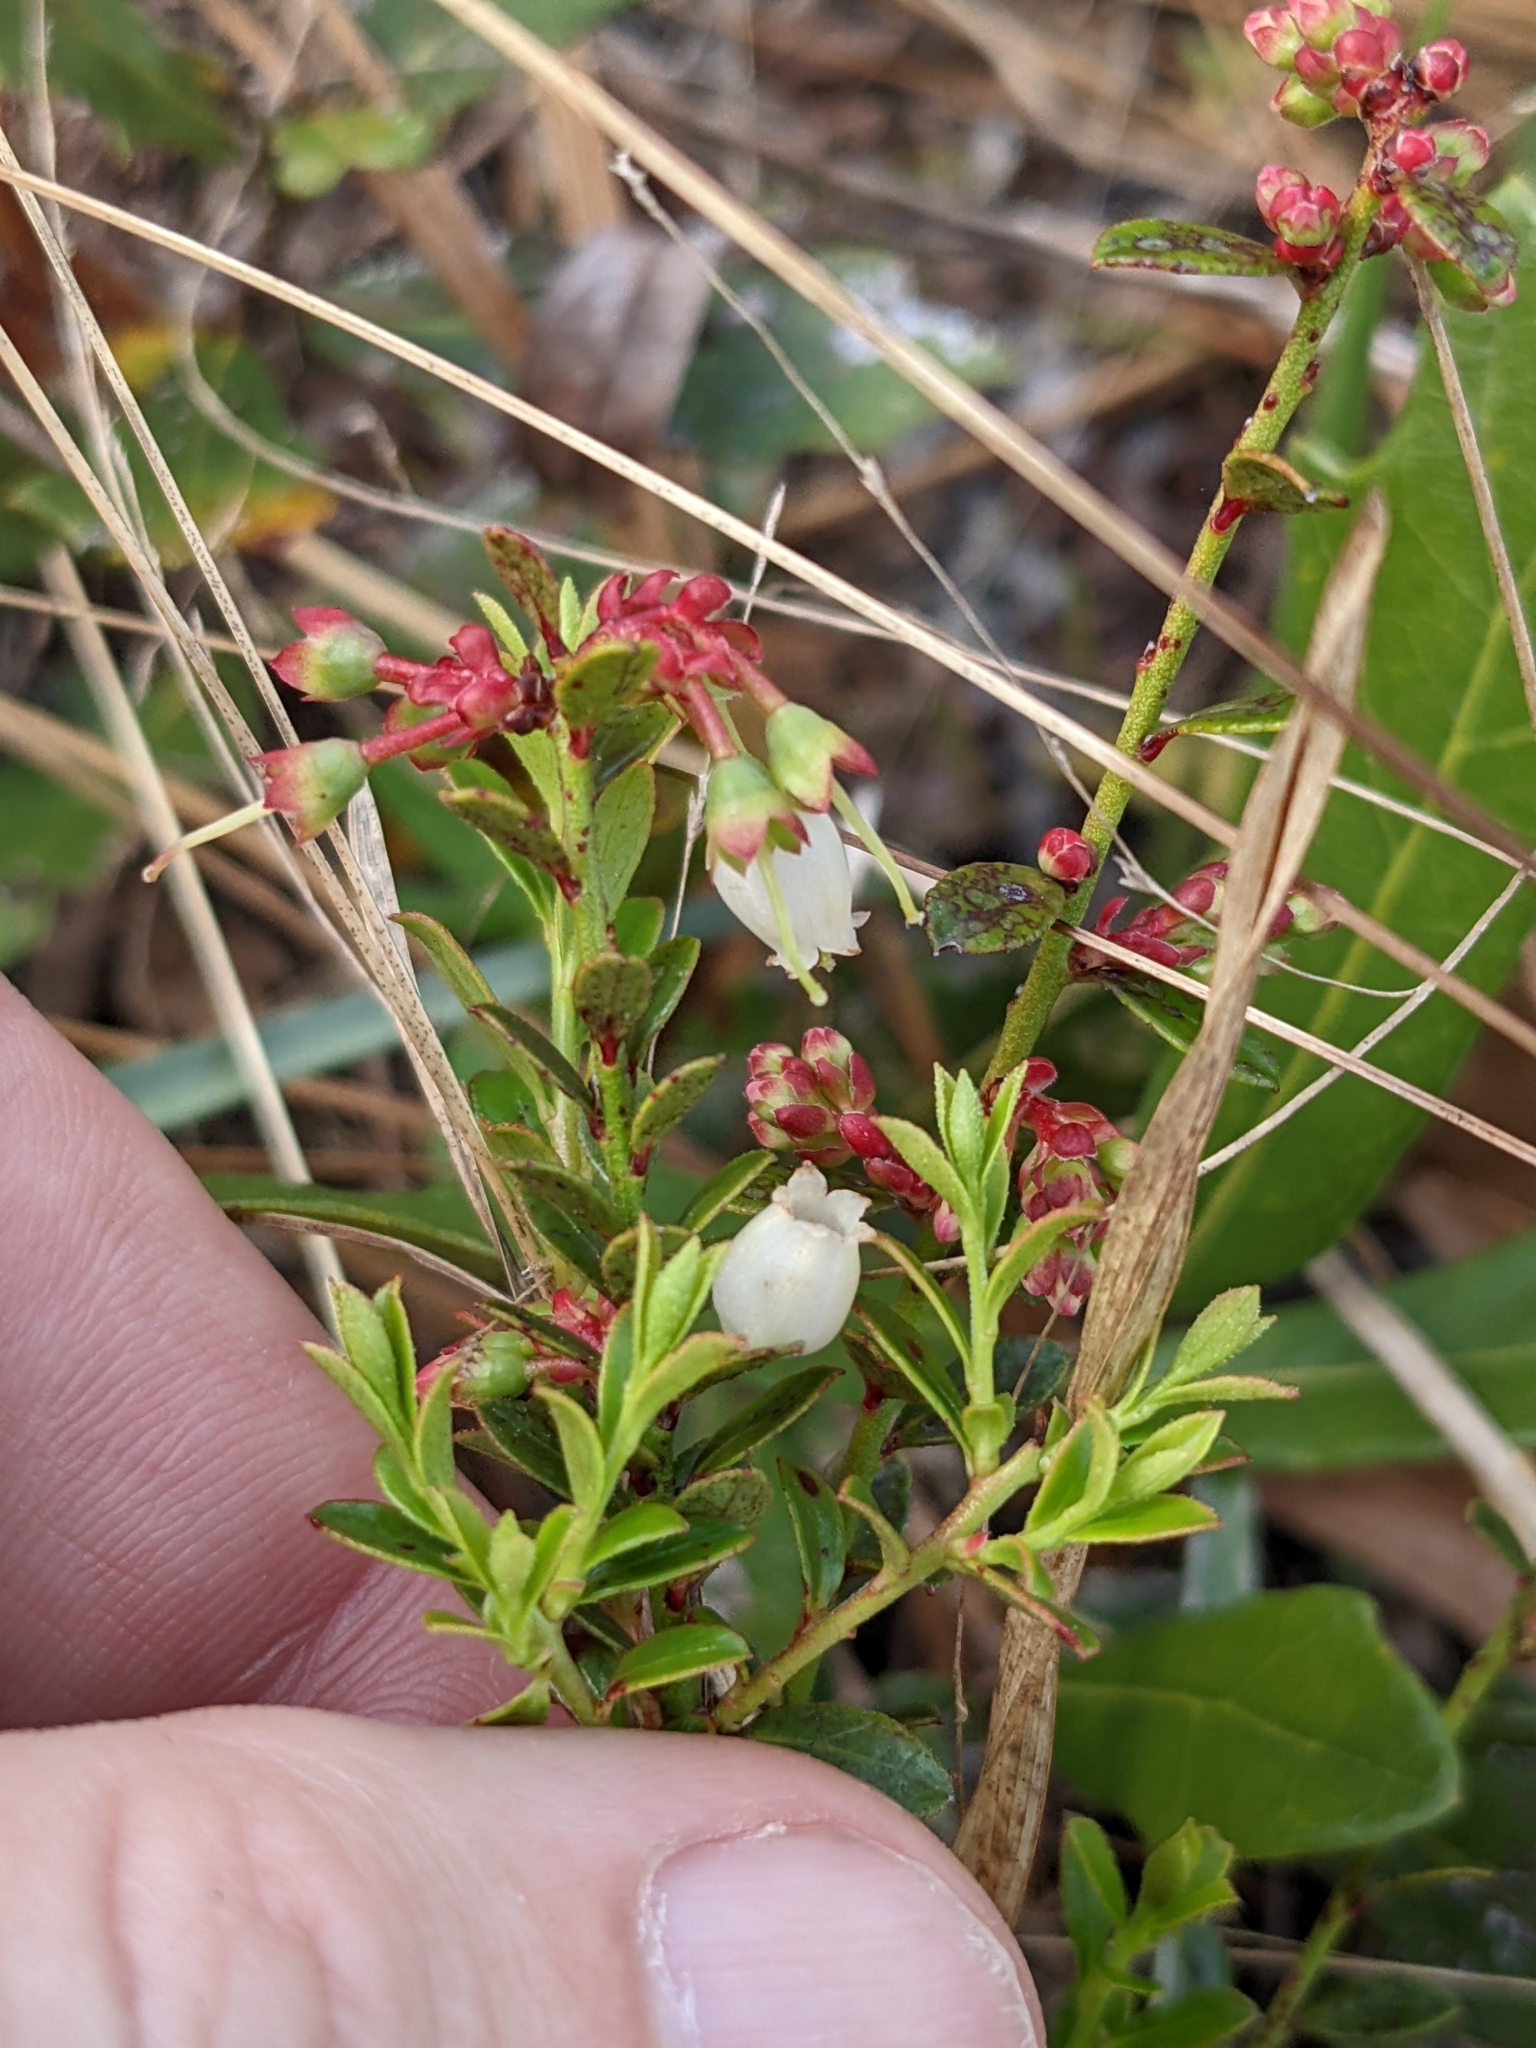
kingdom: Plantae
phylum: Tracheophyta
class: Magnoliopsida
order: Ericales
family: Ericaceae
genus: Vaccinium
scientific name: Vaccinium myrsinites
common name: Evergreen blueberry
